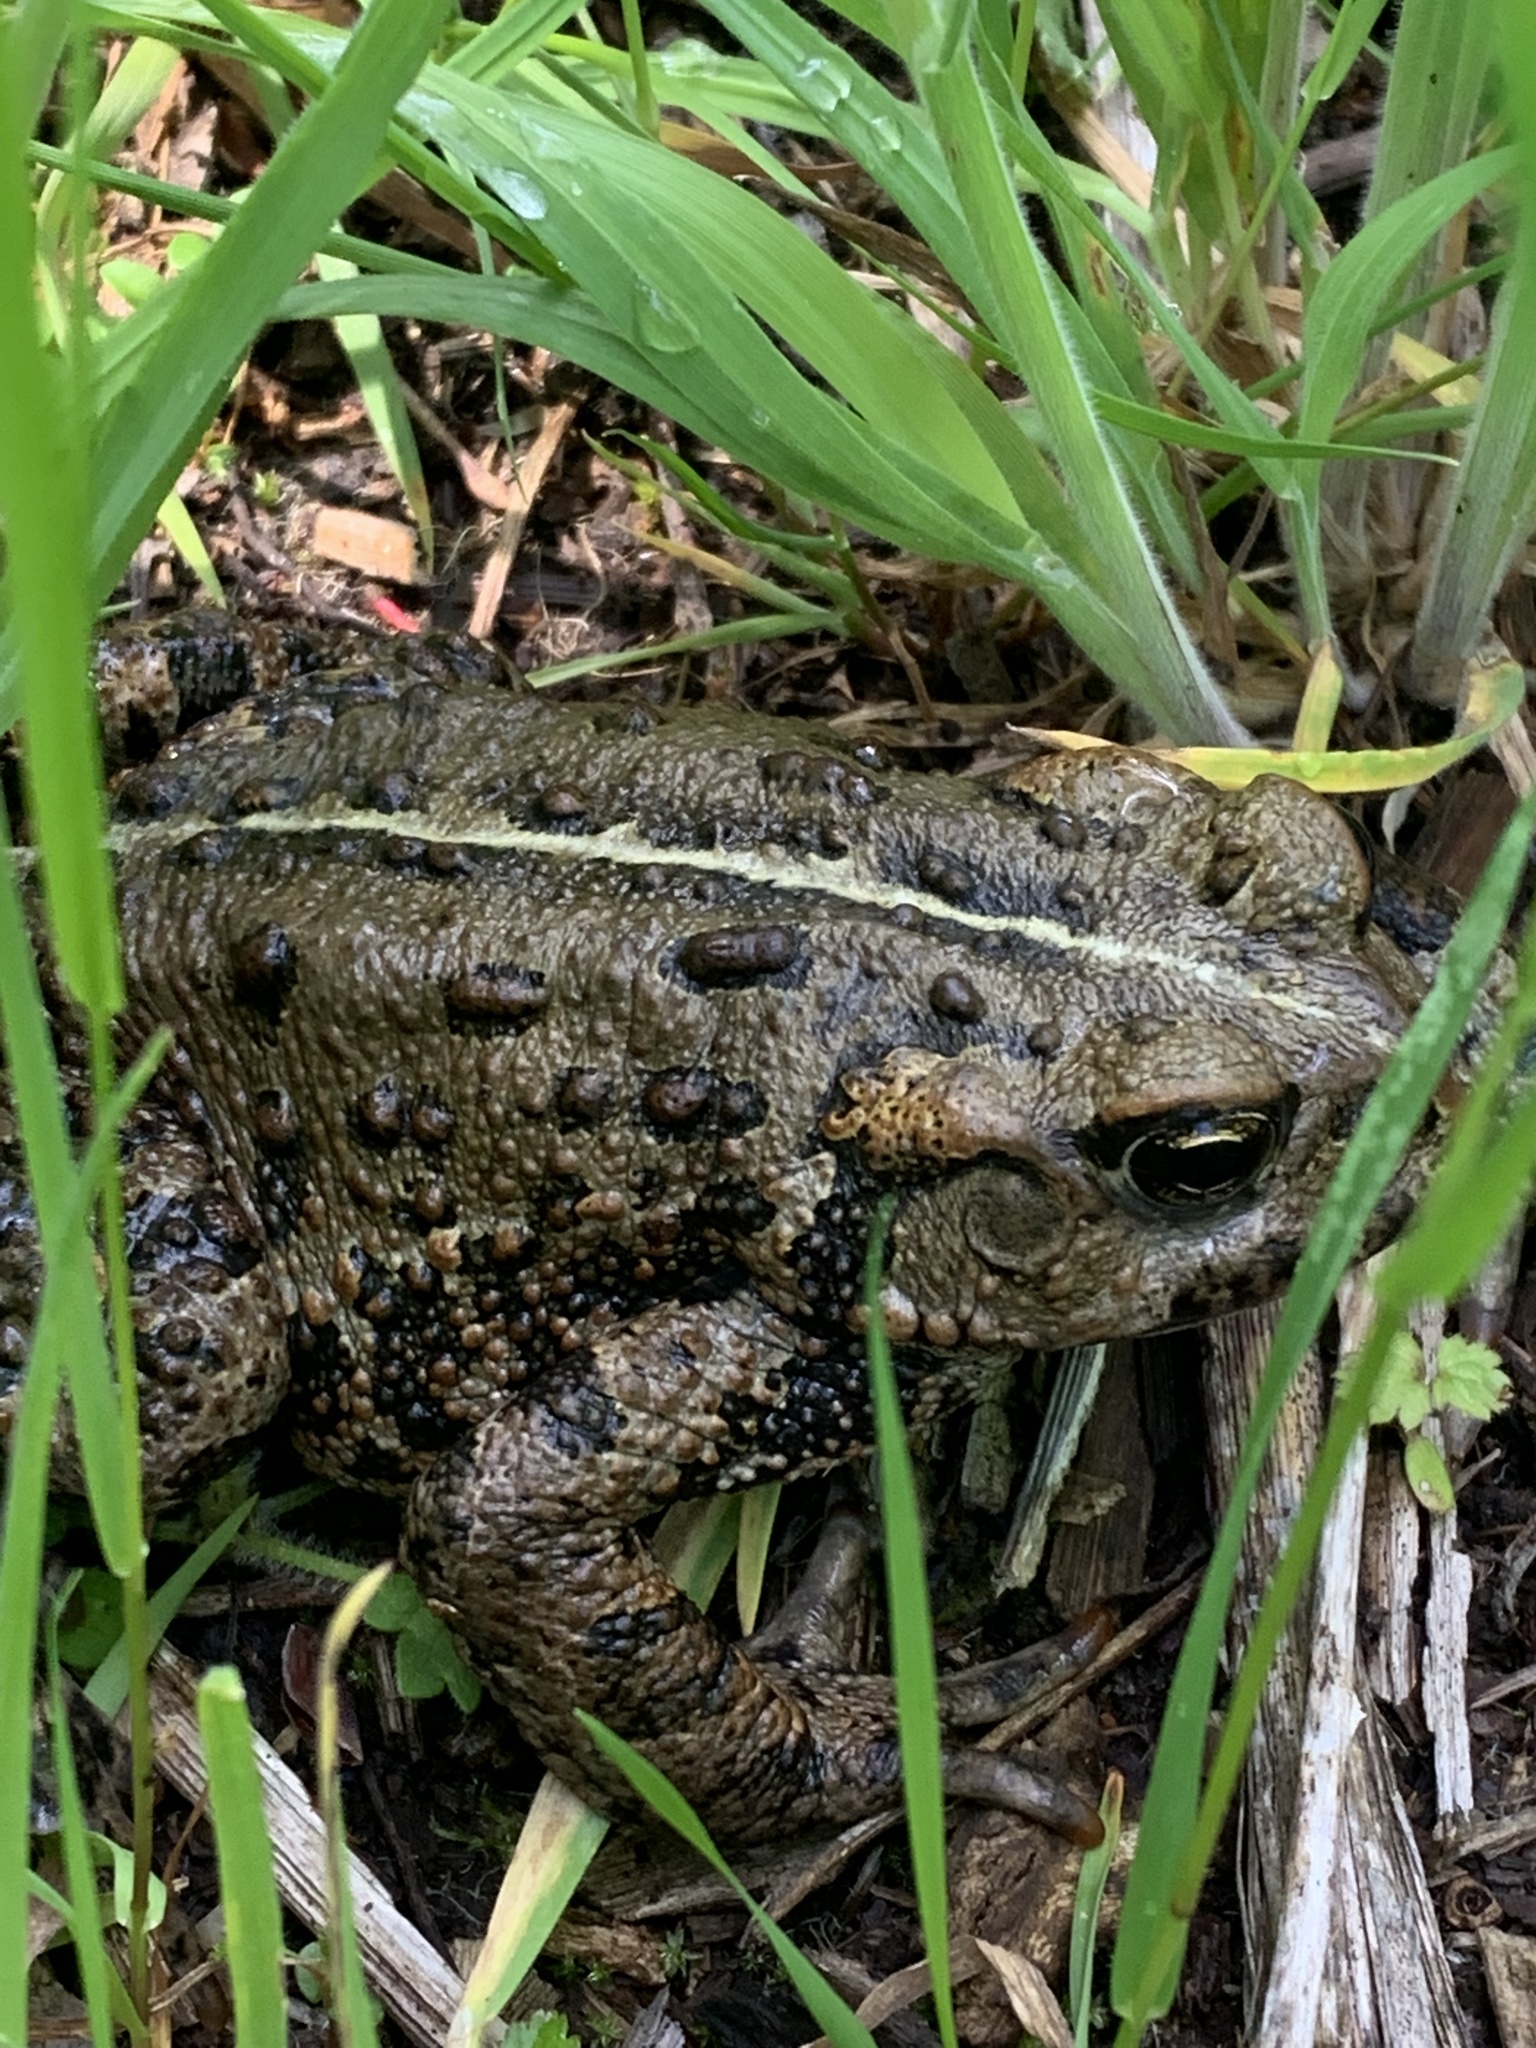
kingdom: Animalia
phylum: Chordata
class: Amphibia
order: Anura
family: Bufonidae
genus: Anaxyrus
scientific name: Anaxyrus boreas
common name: Western toad
